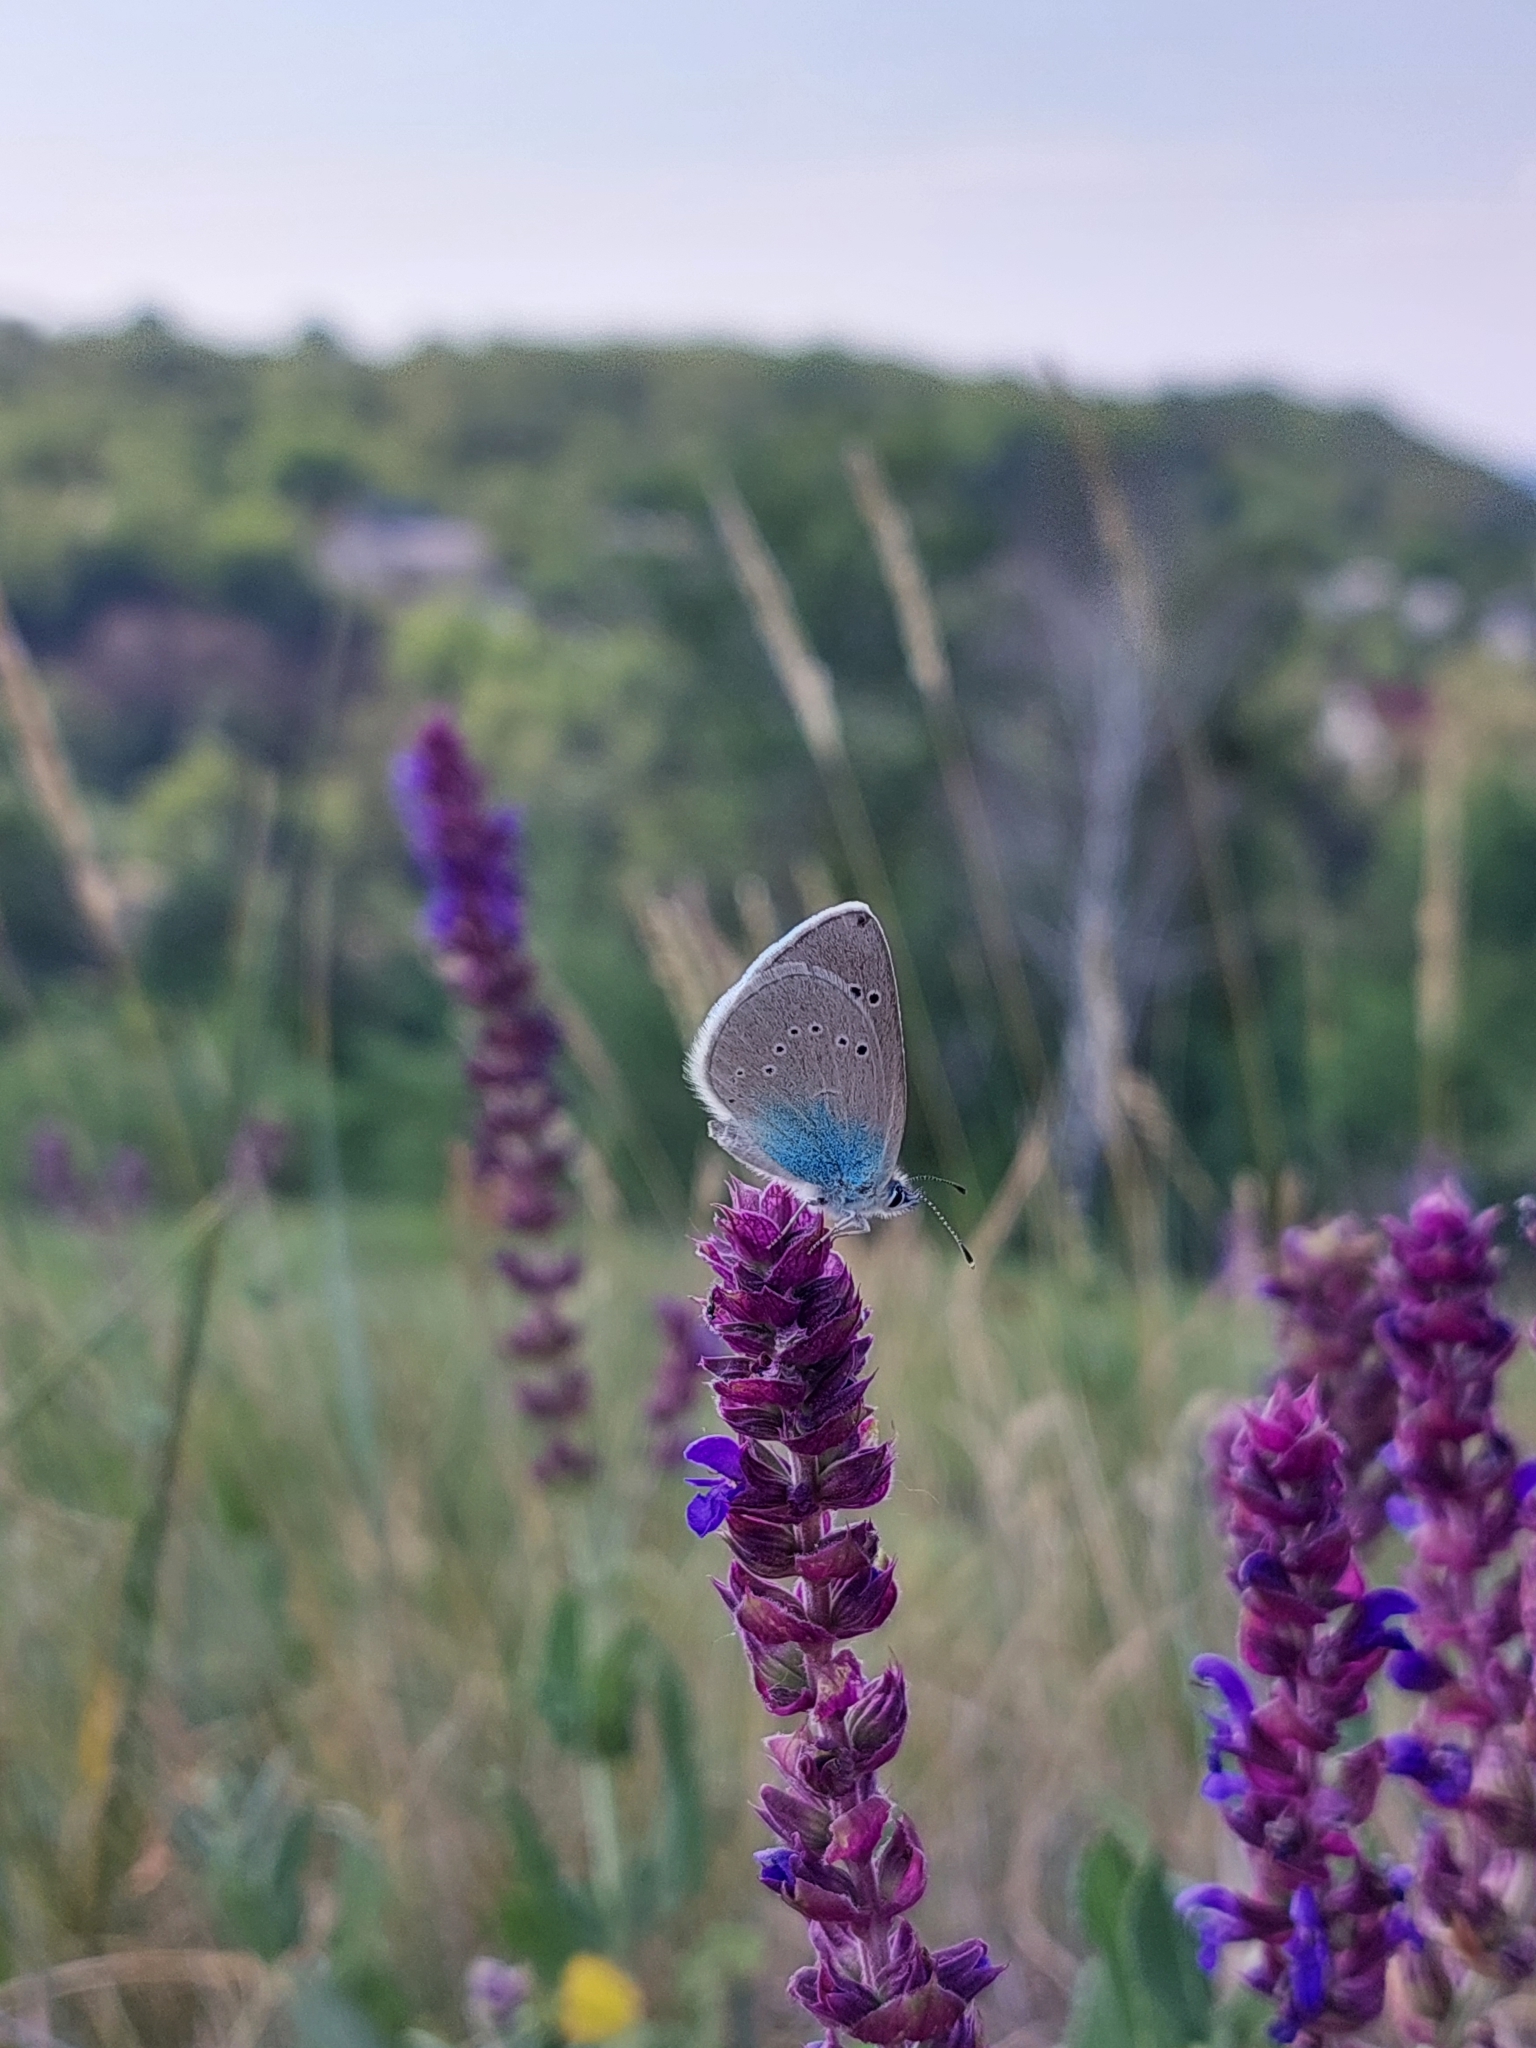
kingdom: Animalia
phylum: Arthropoda
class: Insecta
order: Lepidoptera
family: Lycaenidae
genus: Glaucopsyche
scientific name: Glaucopsyche alexis
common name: Green-underside blue
